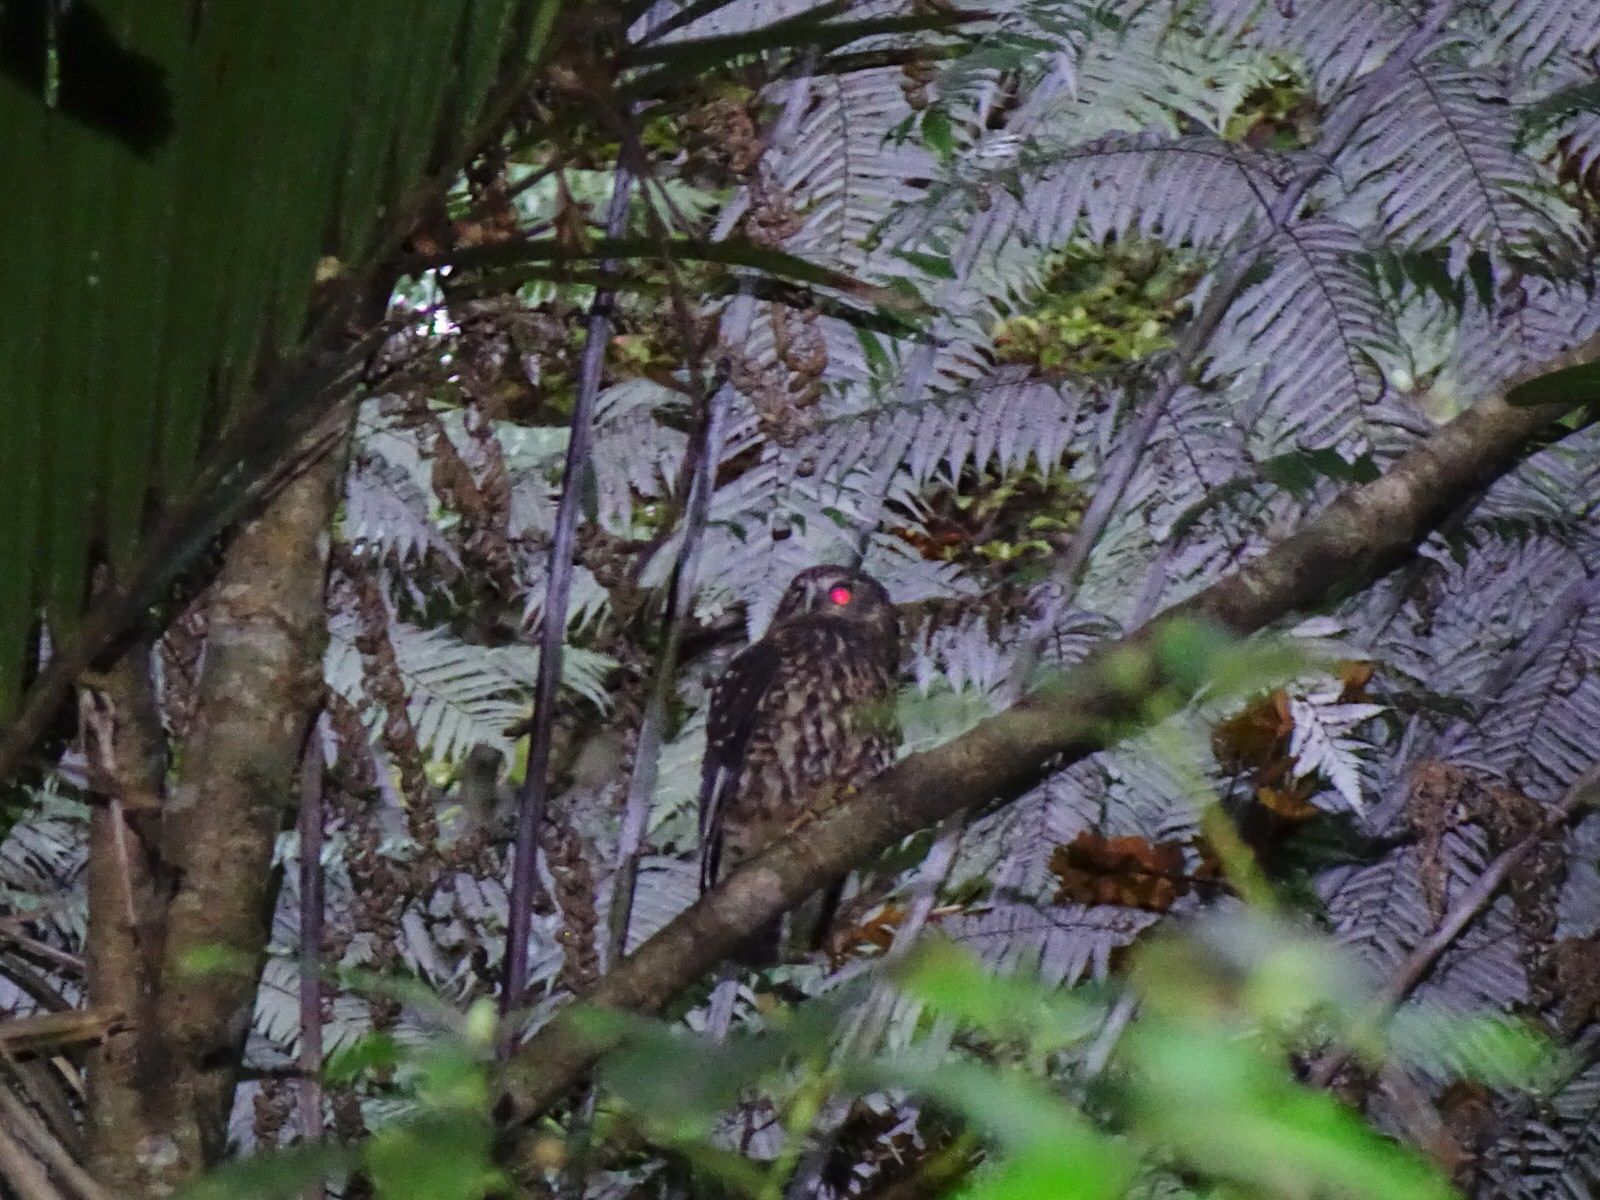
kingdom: Animalia
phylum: Chordata
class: Aves
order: Strigiformes
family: Strigidae
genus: Ninox
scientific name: Ninox novaeseelandiae
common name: Morepork
